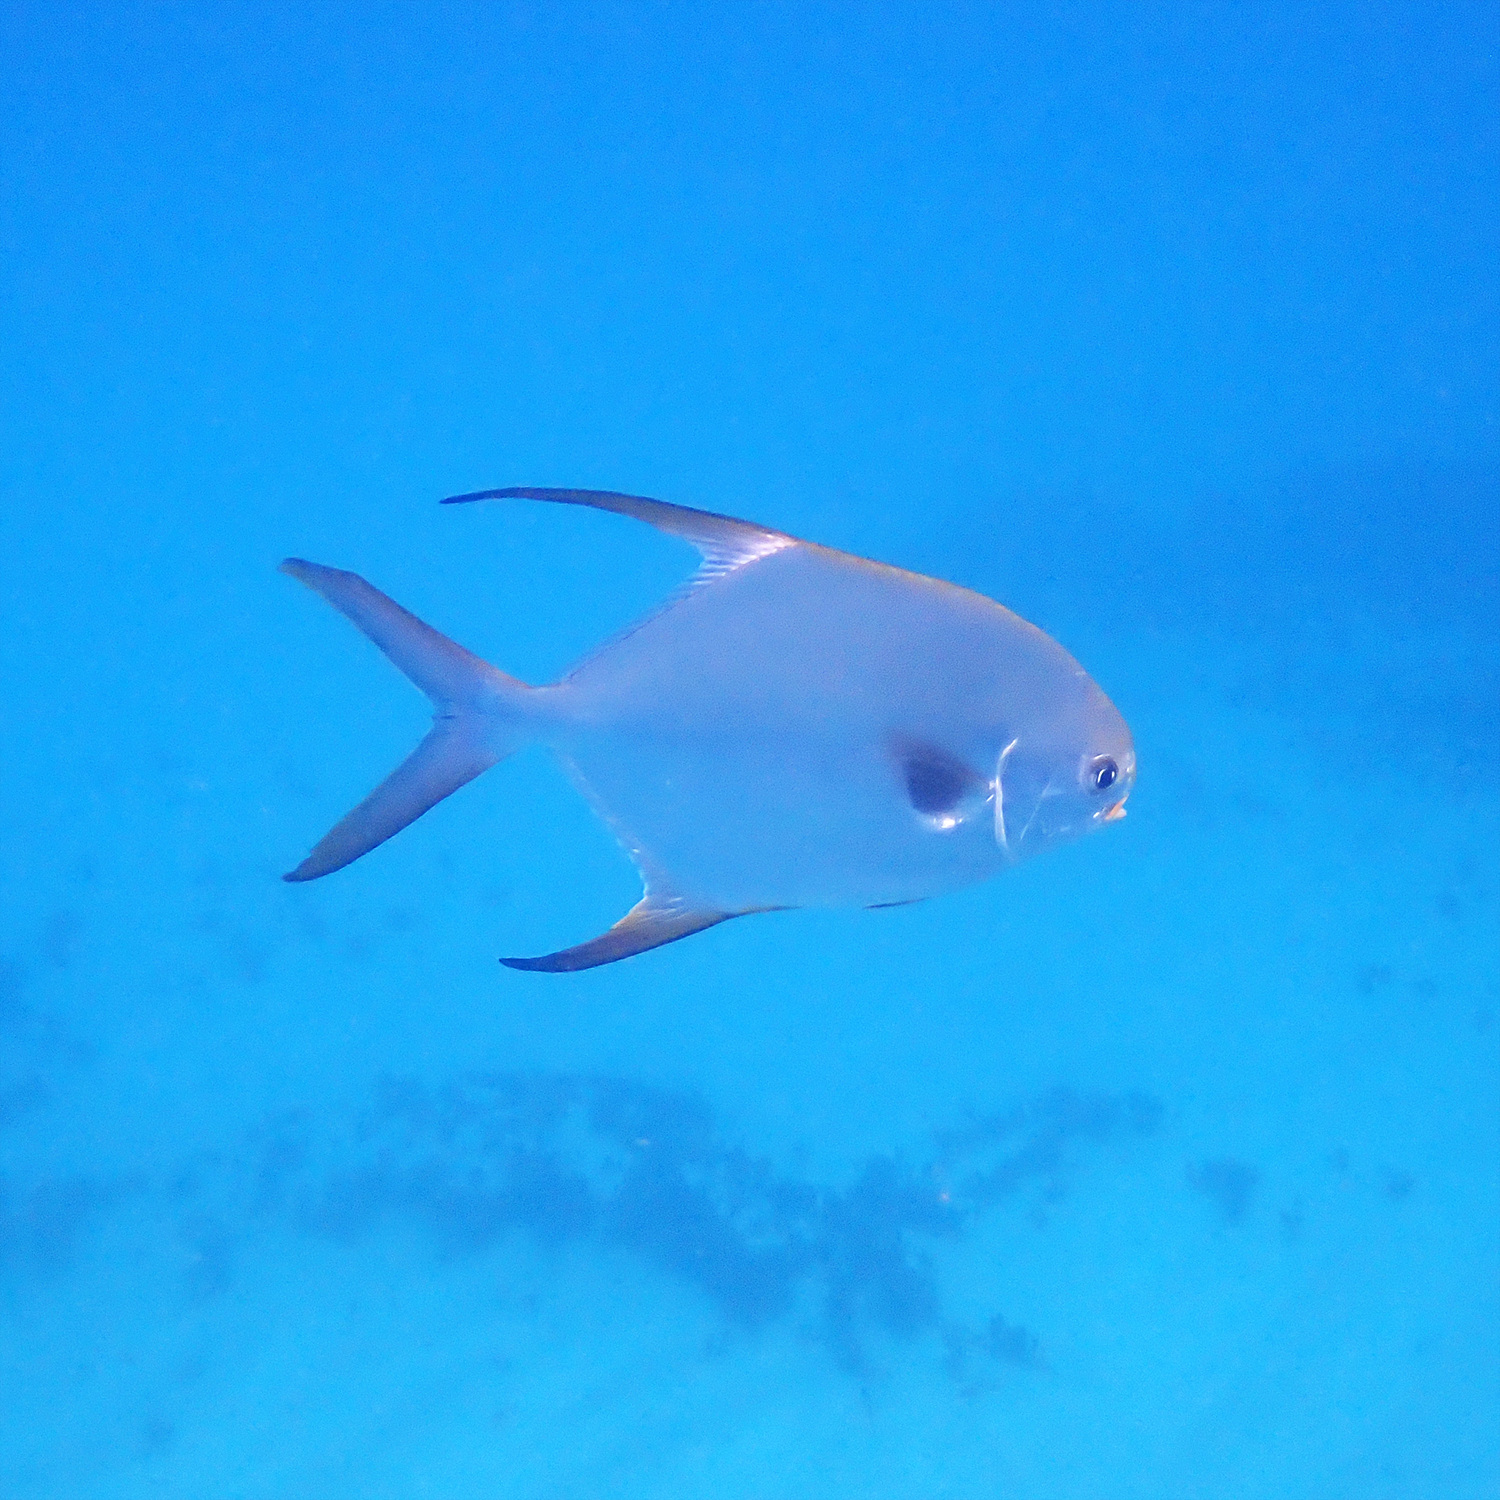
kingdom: Animalia
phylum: Chordata
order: Perciformes
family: Carangidae
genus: Trachinotus
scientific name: Trachinotus blochii
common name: Snubnose pompano
